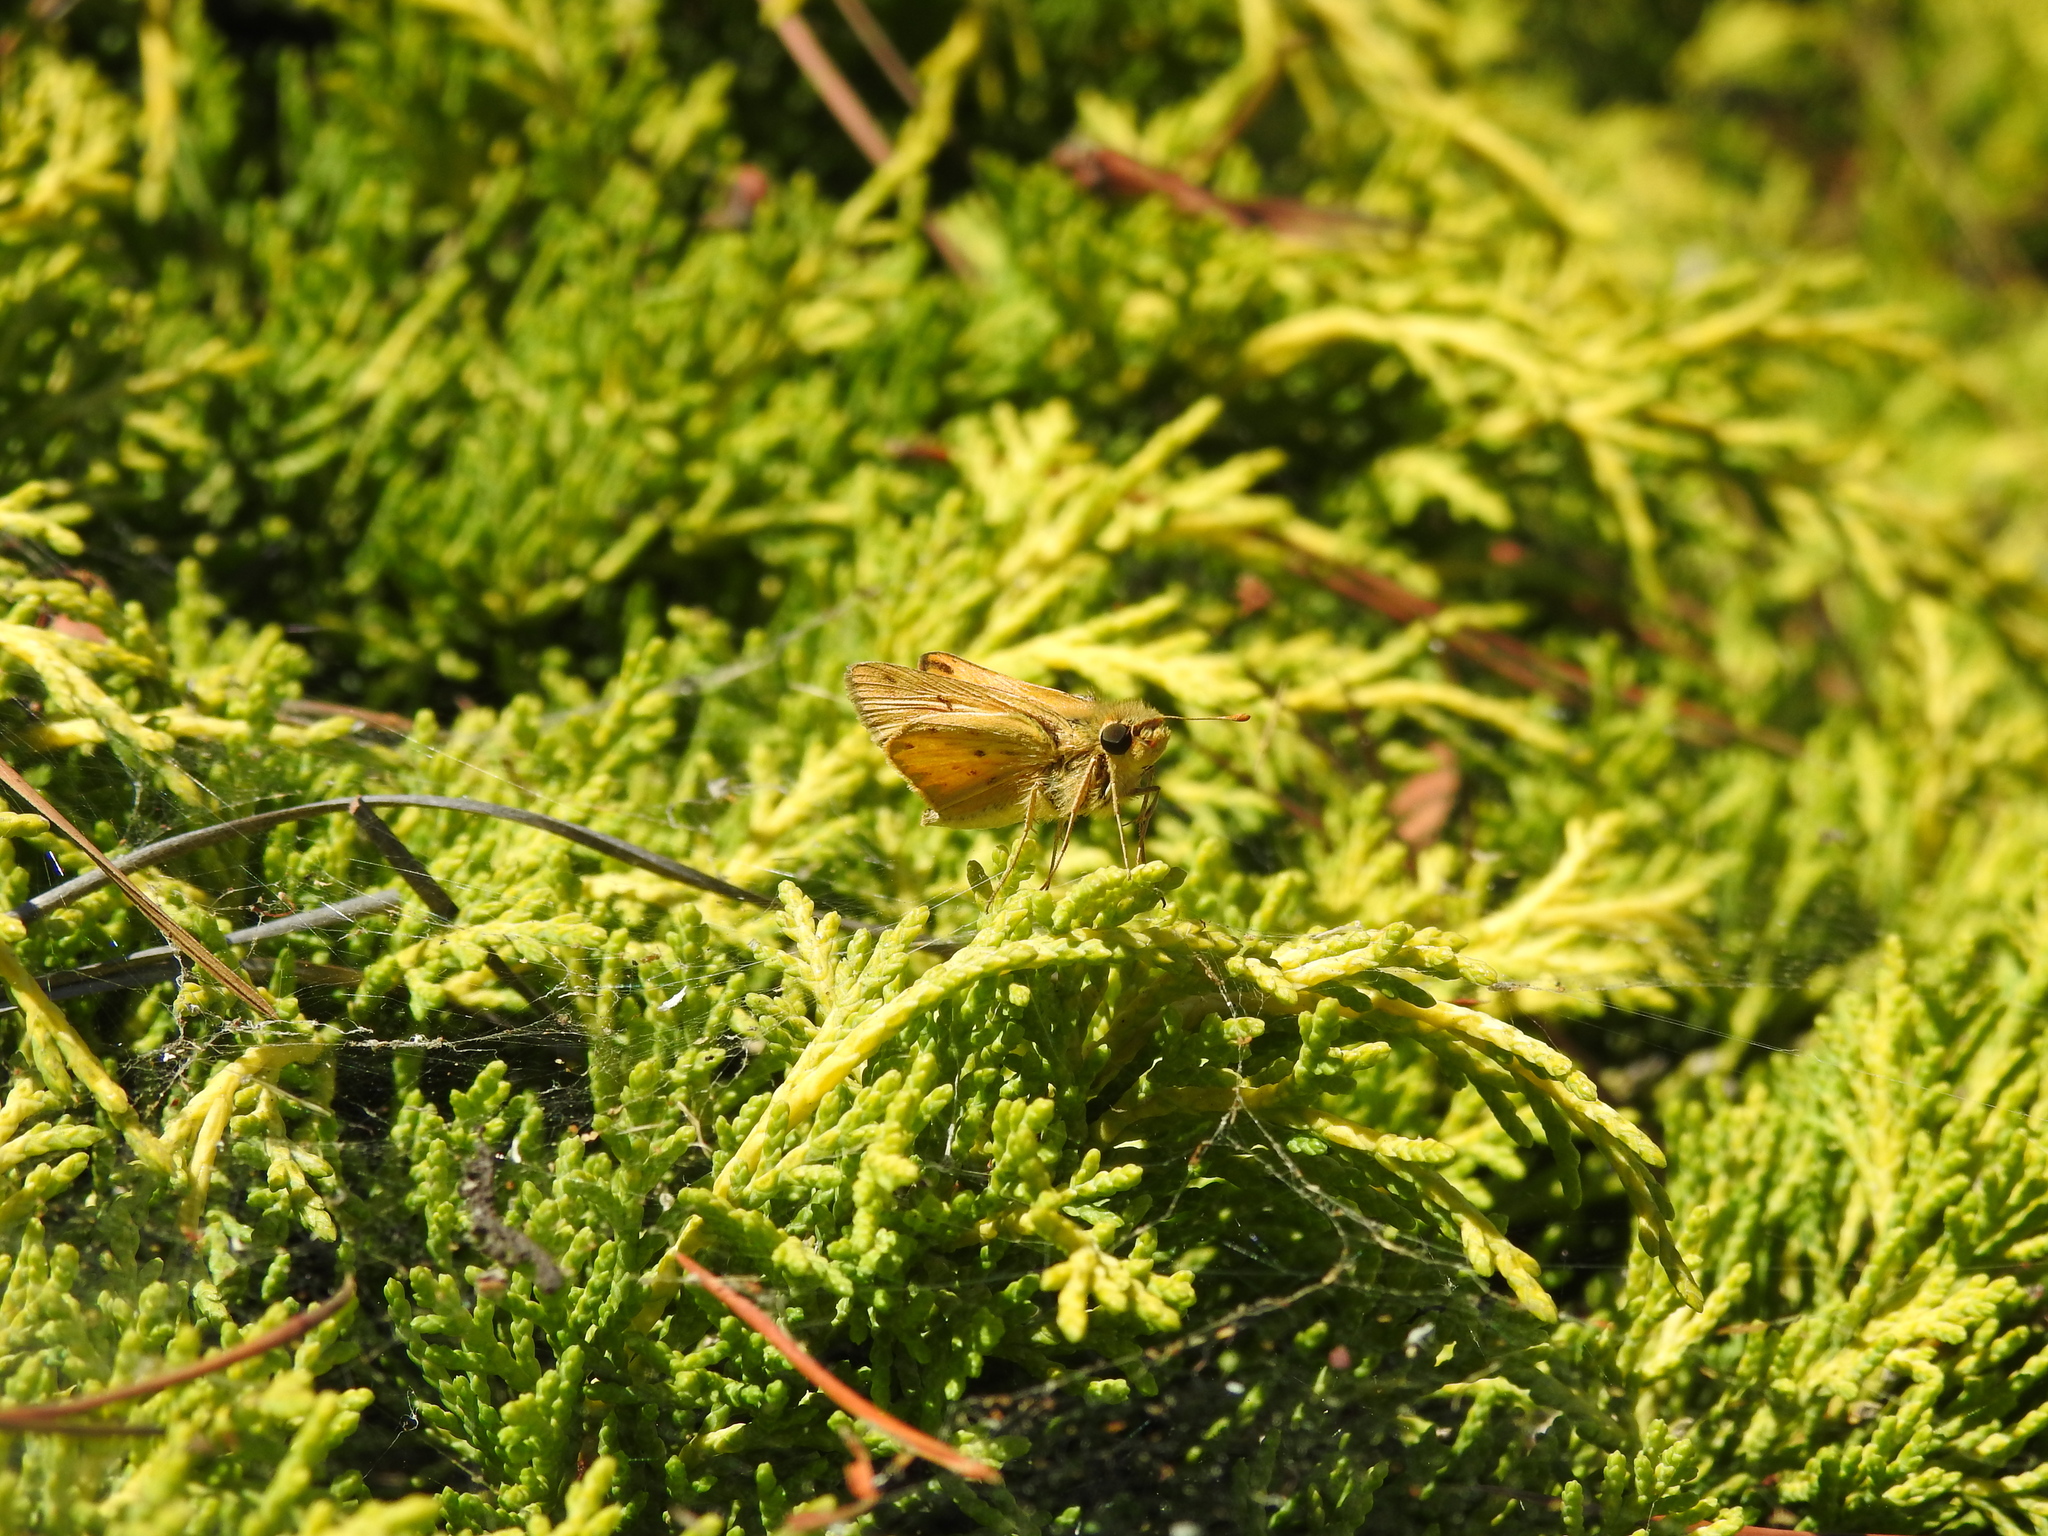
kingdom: Animalia
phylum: Arthropoda
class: Insecta
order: Lepidoptera
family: Hesperiidae
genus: Hylephila
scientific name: Hylephila phyleus
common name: Fiery skipper
